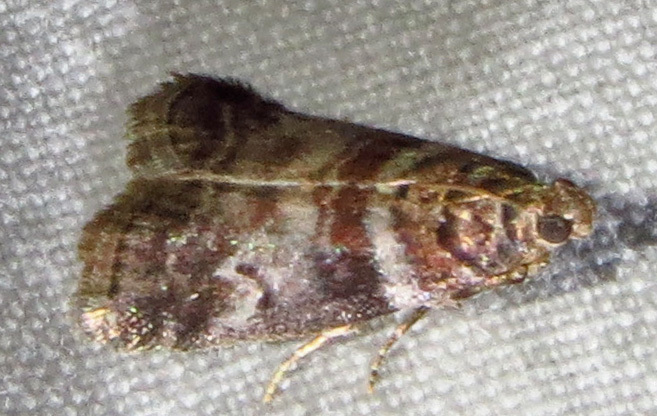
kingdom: Animalia
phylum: Arthropoda
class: Insecta
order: Lepidoptera
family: Pyralidae
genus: Sciota
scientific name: Sciota uvinella
